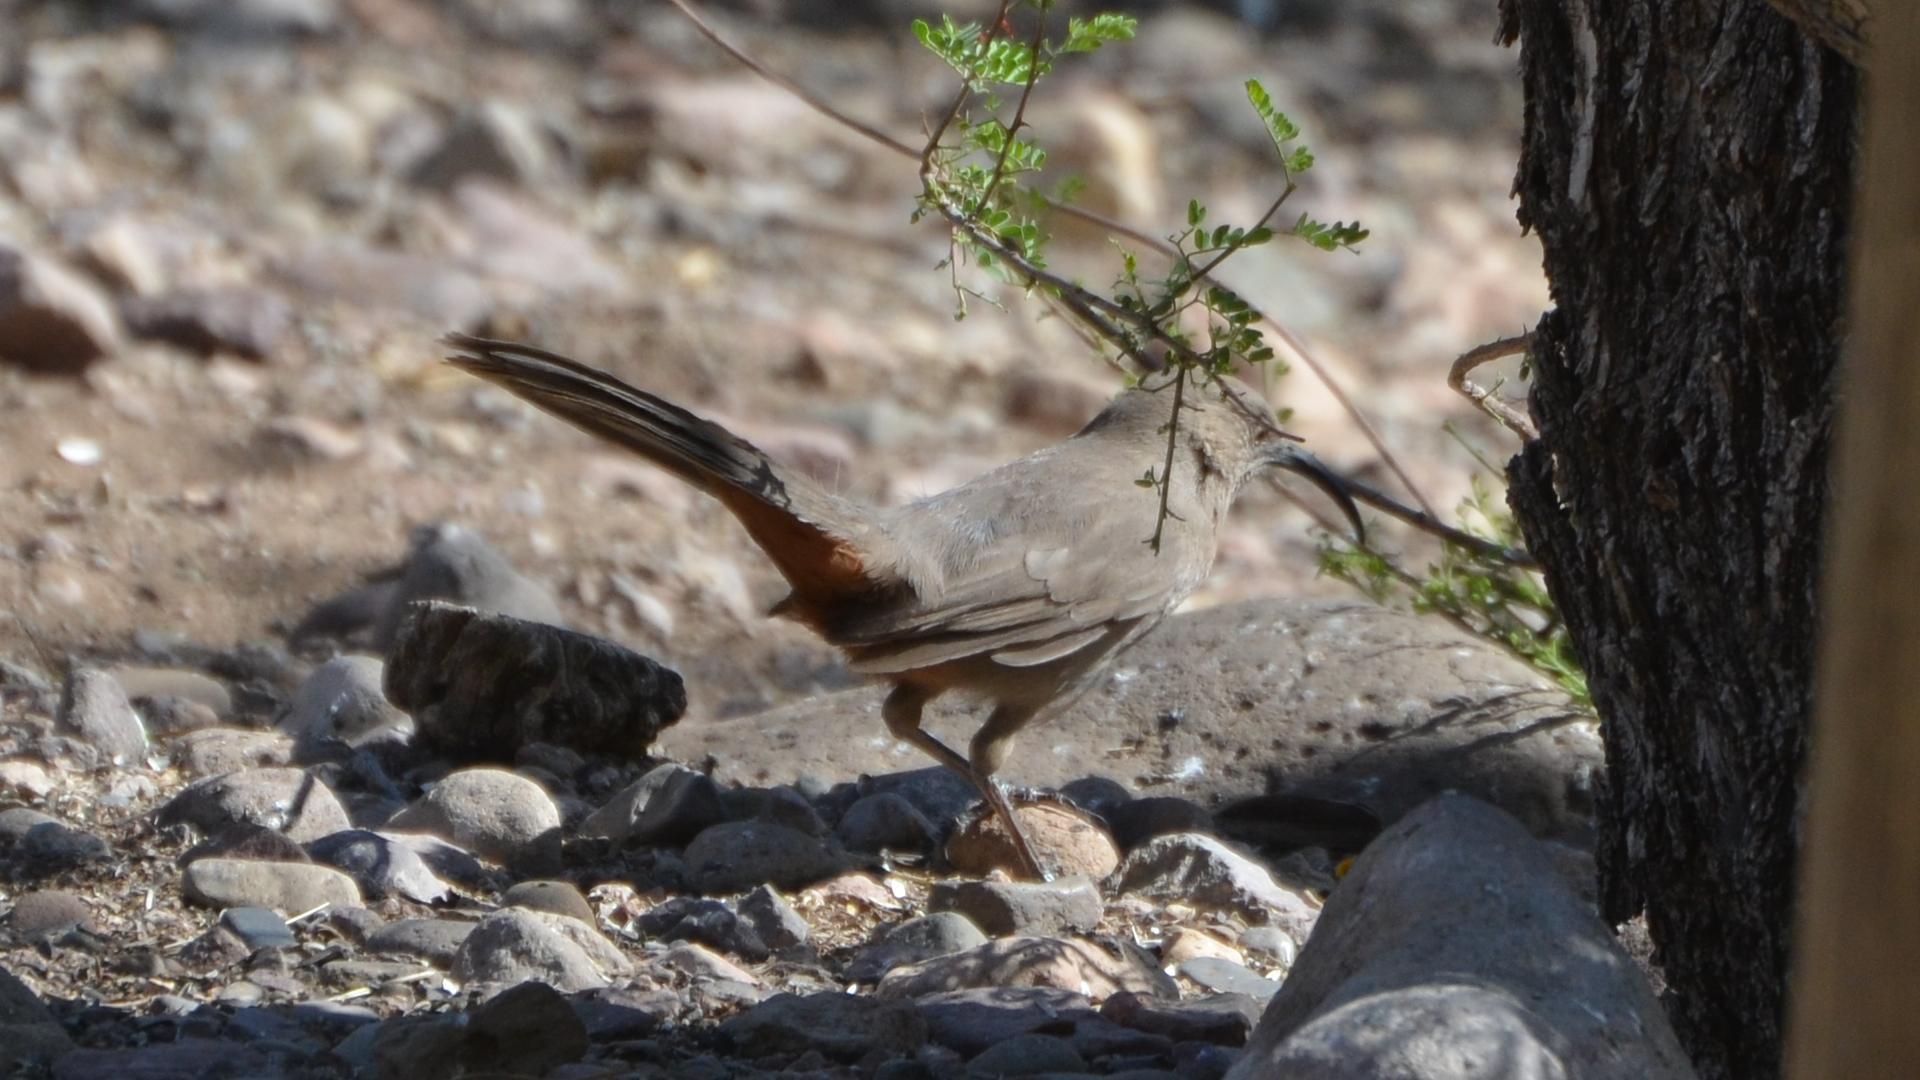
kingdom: Animalia
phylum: Chordata
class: Aves
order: Passeriformes
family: Mimidae
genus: Toxostoma
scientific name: Toxostoma crissale
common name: Crissal thrasher
